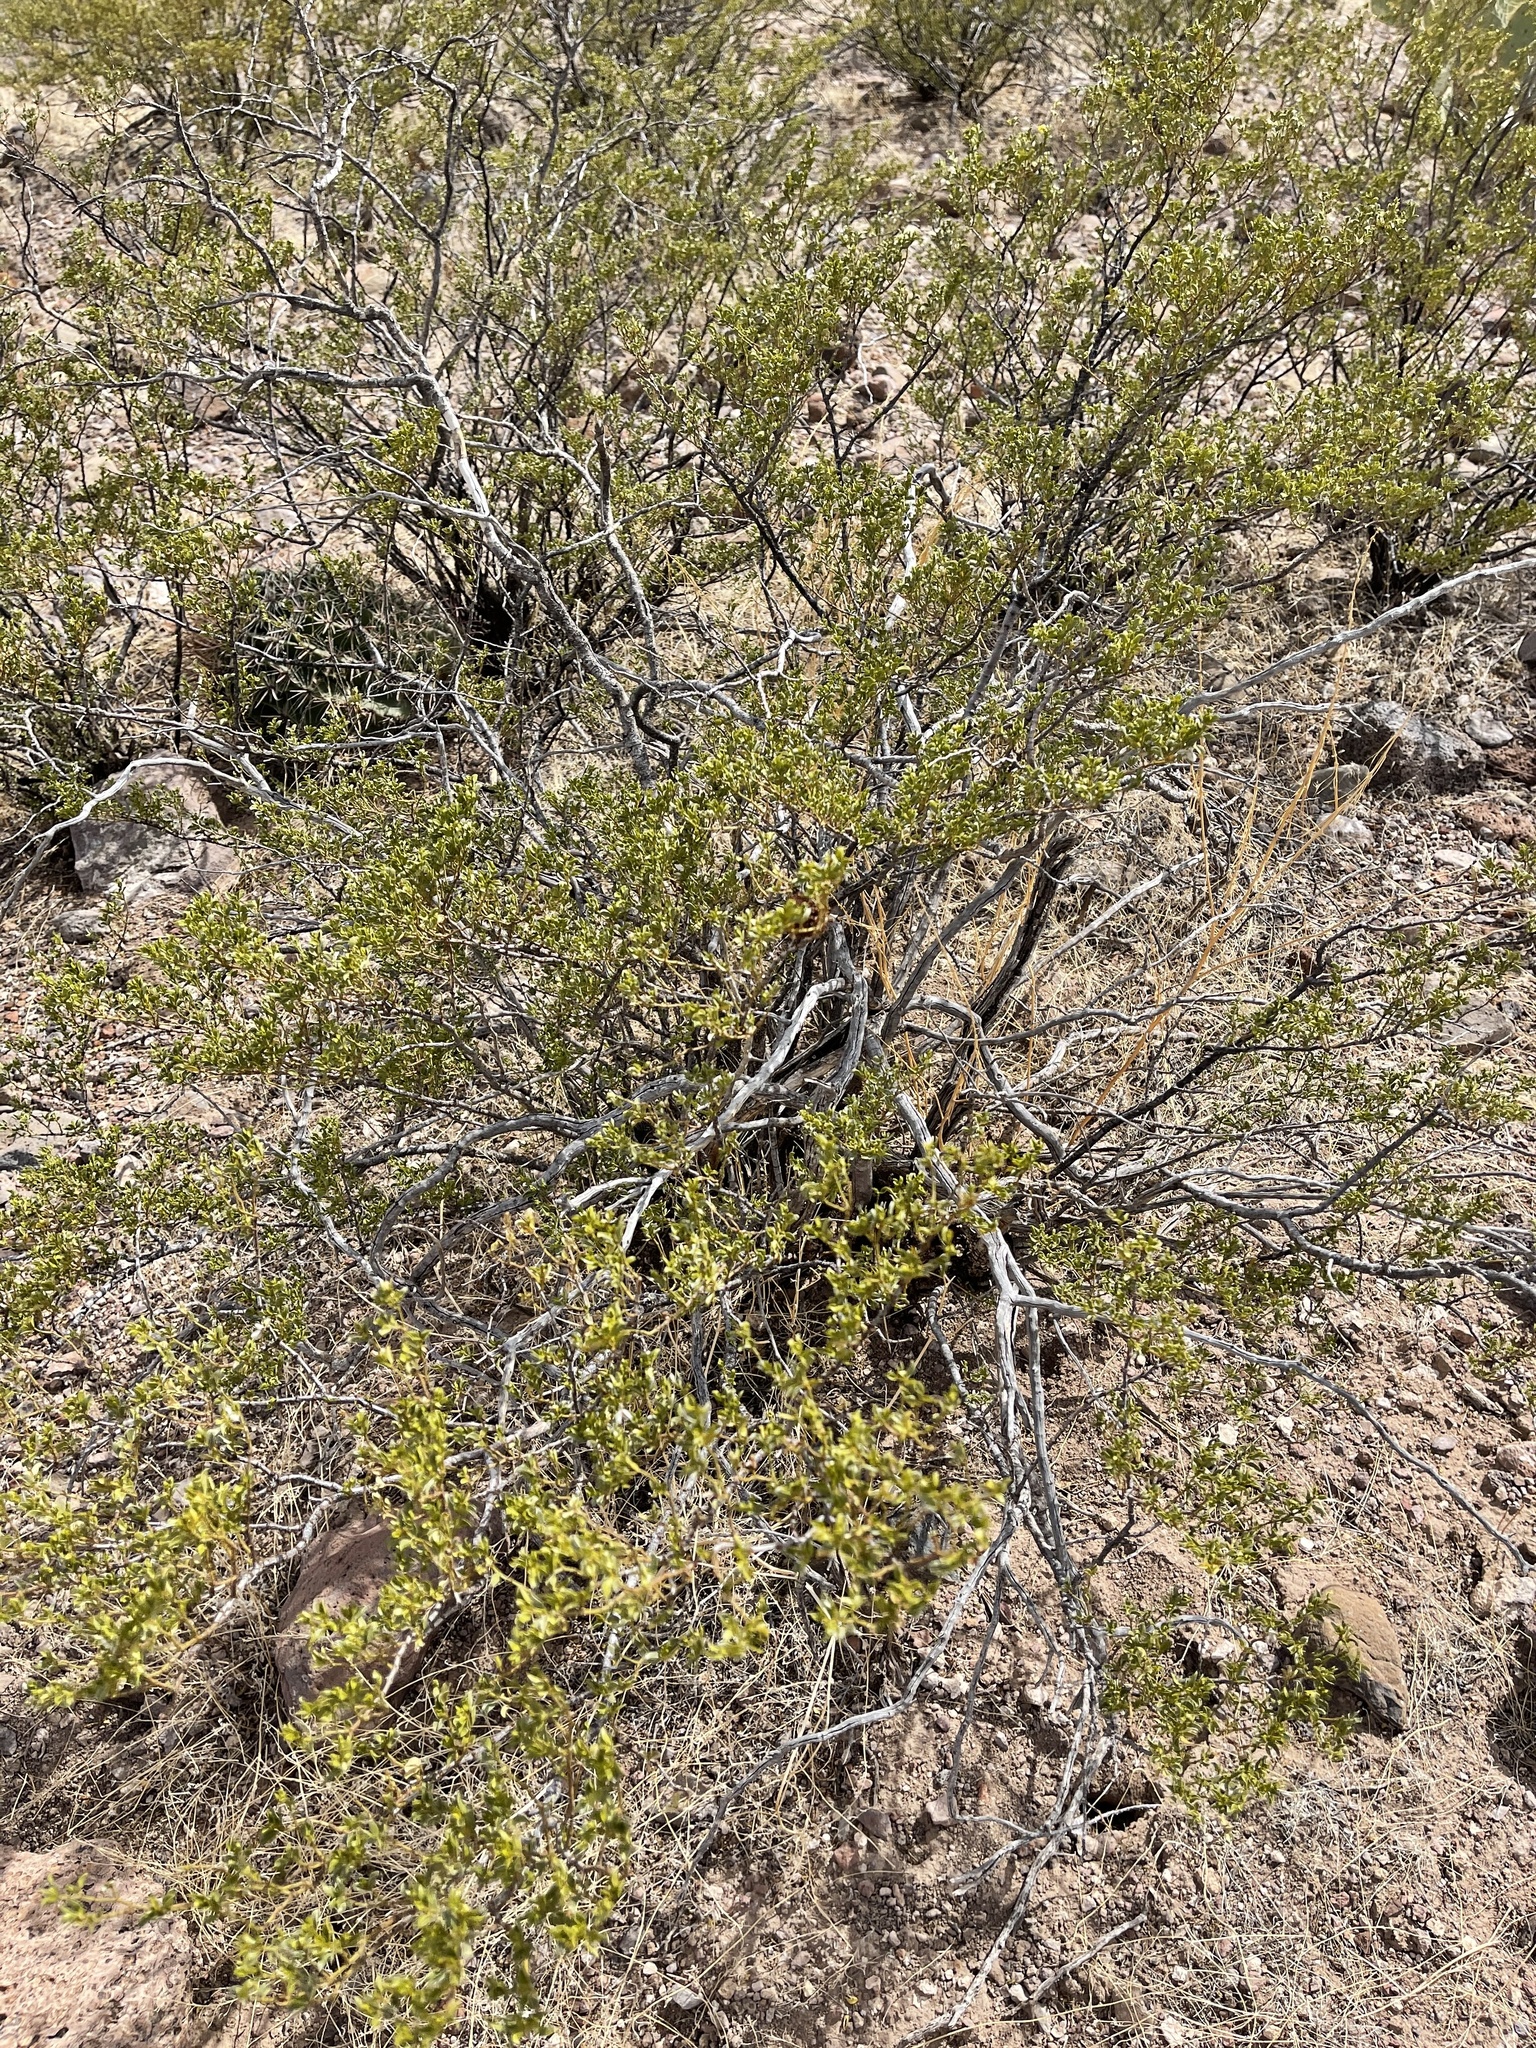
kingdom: Plantae
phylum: Tracheophyta
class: Magnoliopsida
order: Zygophyllales
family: Zygophyllaceae
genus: Larrea
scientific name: Larrea tridentata
